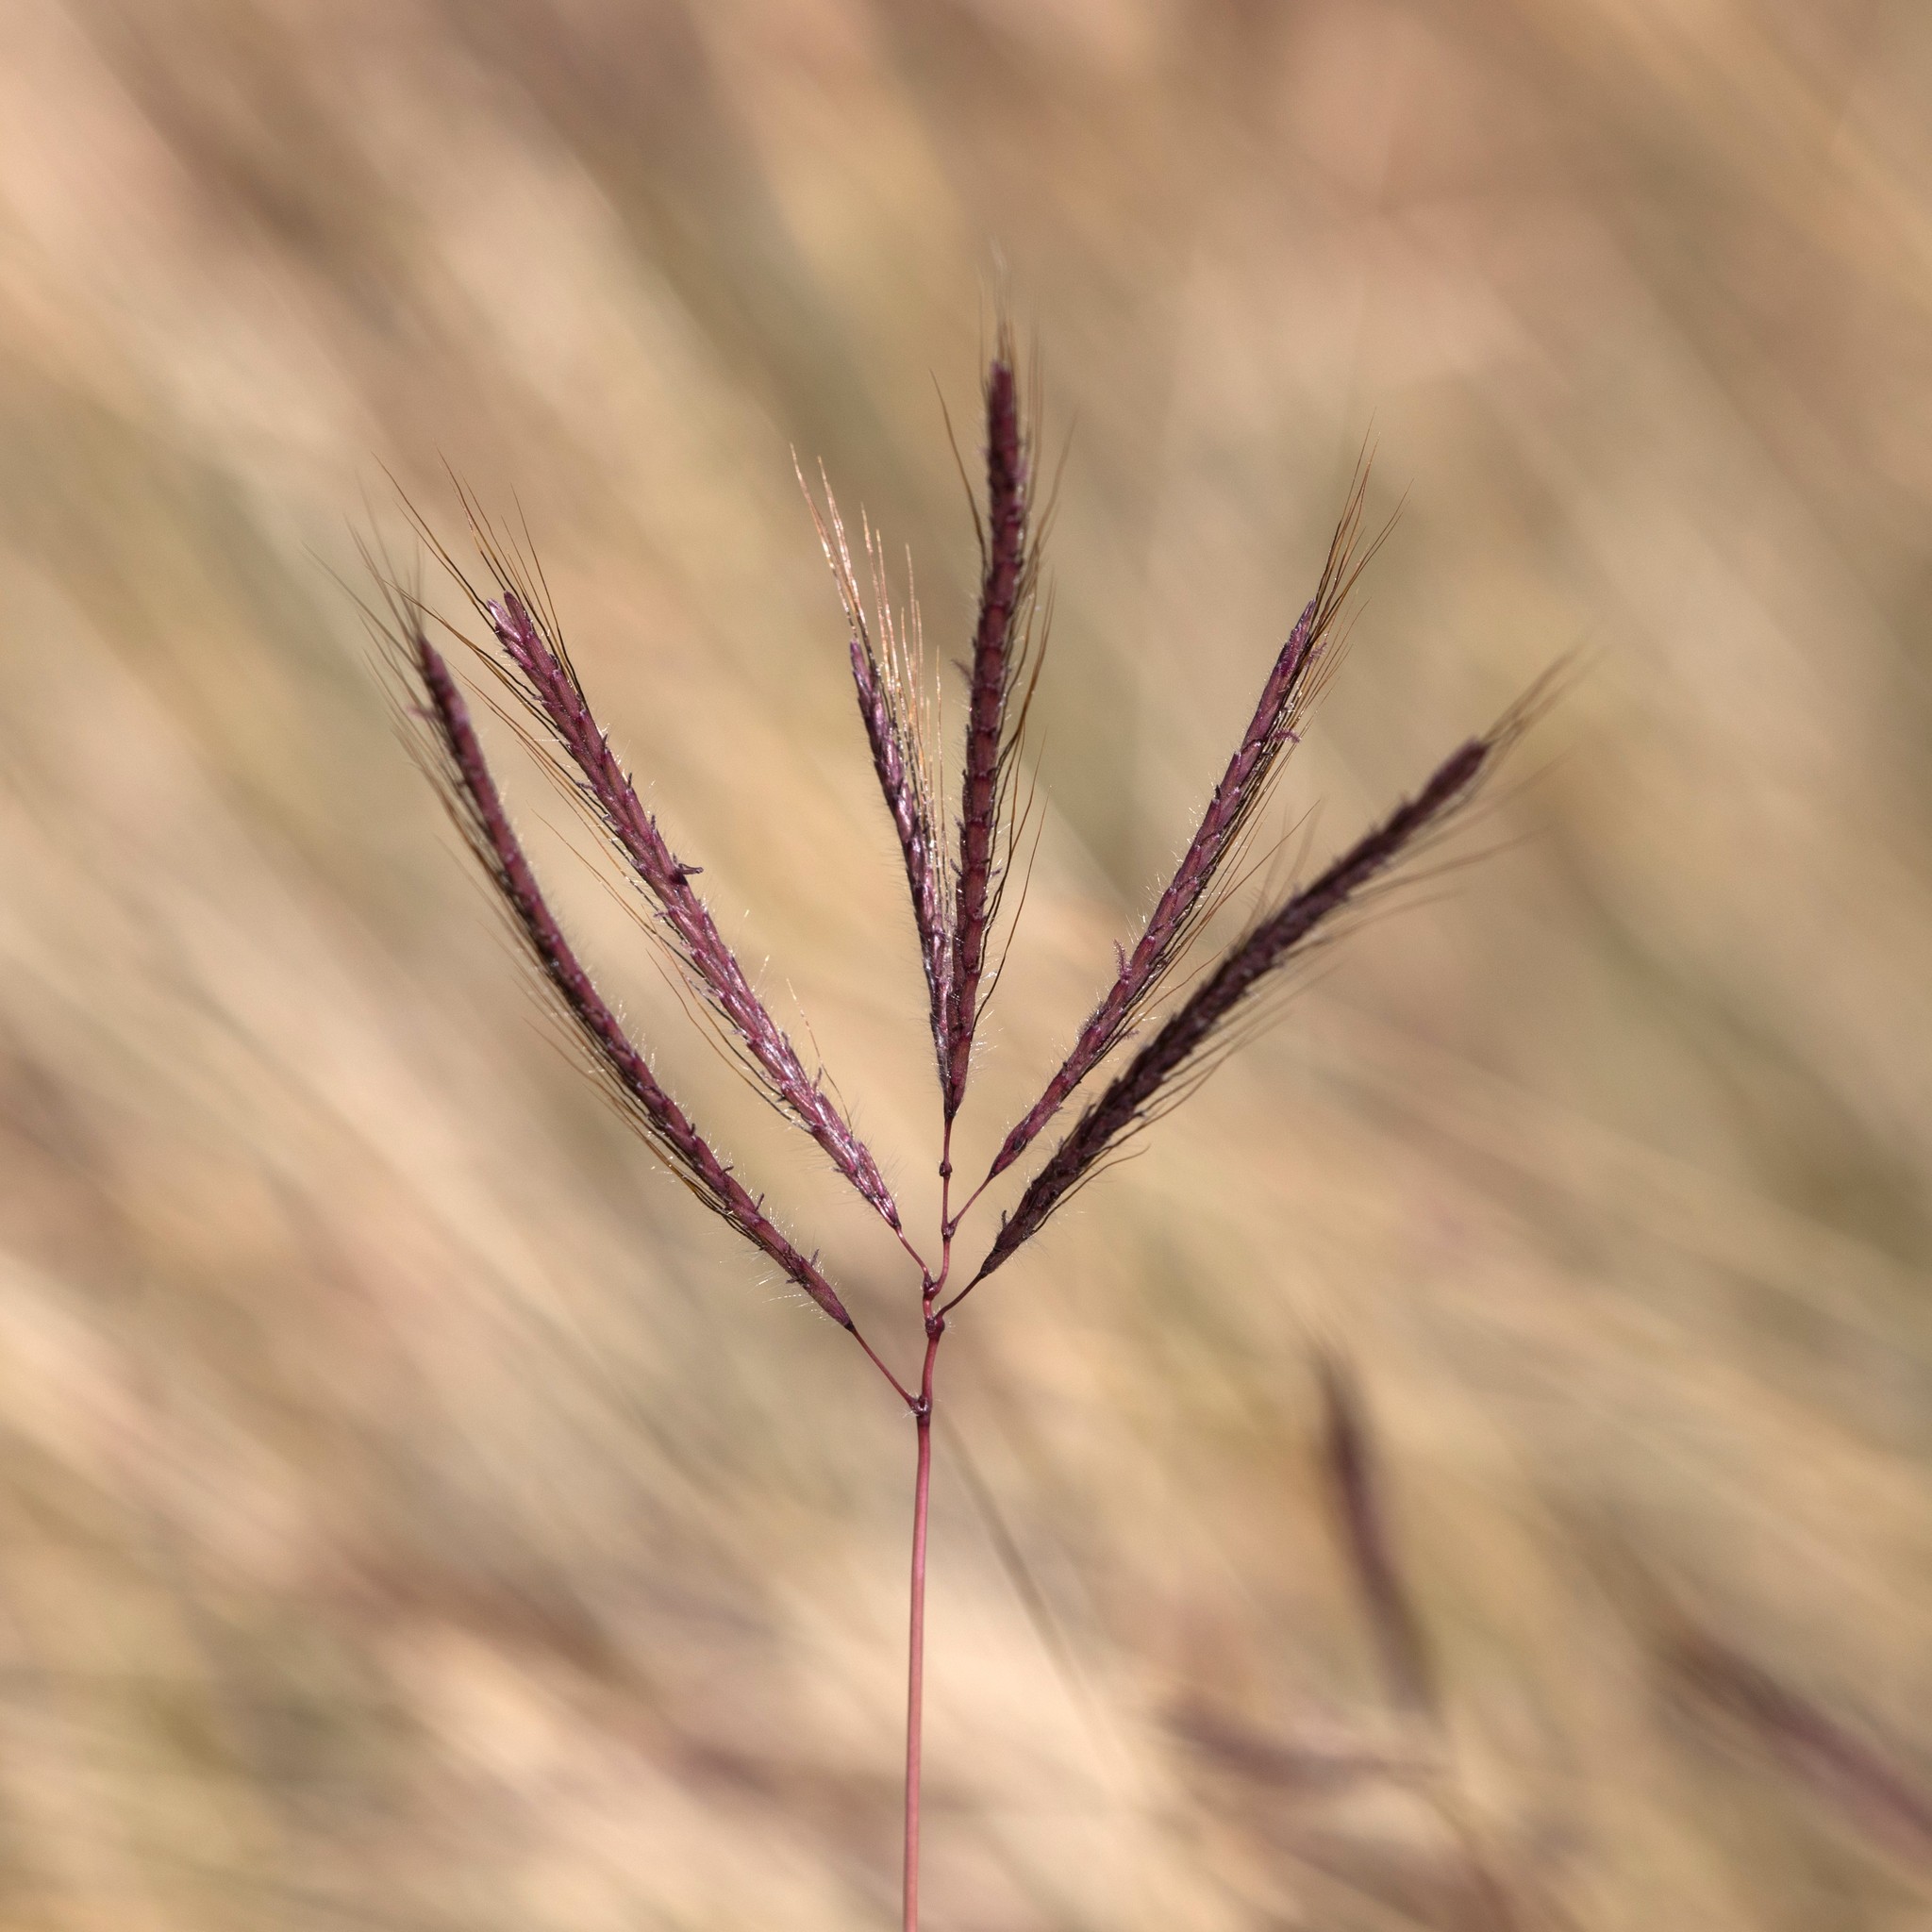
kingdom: Plantae
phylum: Tracheophyta
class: Liliopsida
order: Poales
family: Poaceae
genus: Dichanthium
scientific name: Dichanthium annulatum
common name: Kleberg's bluestem
